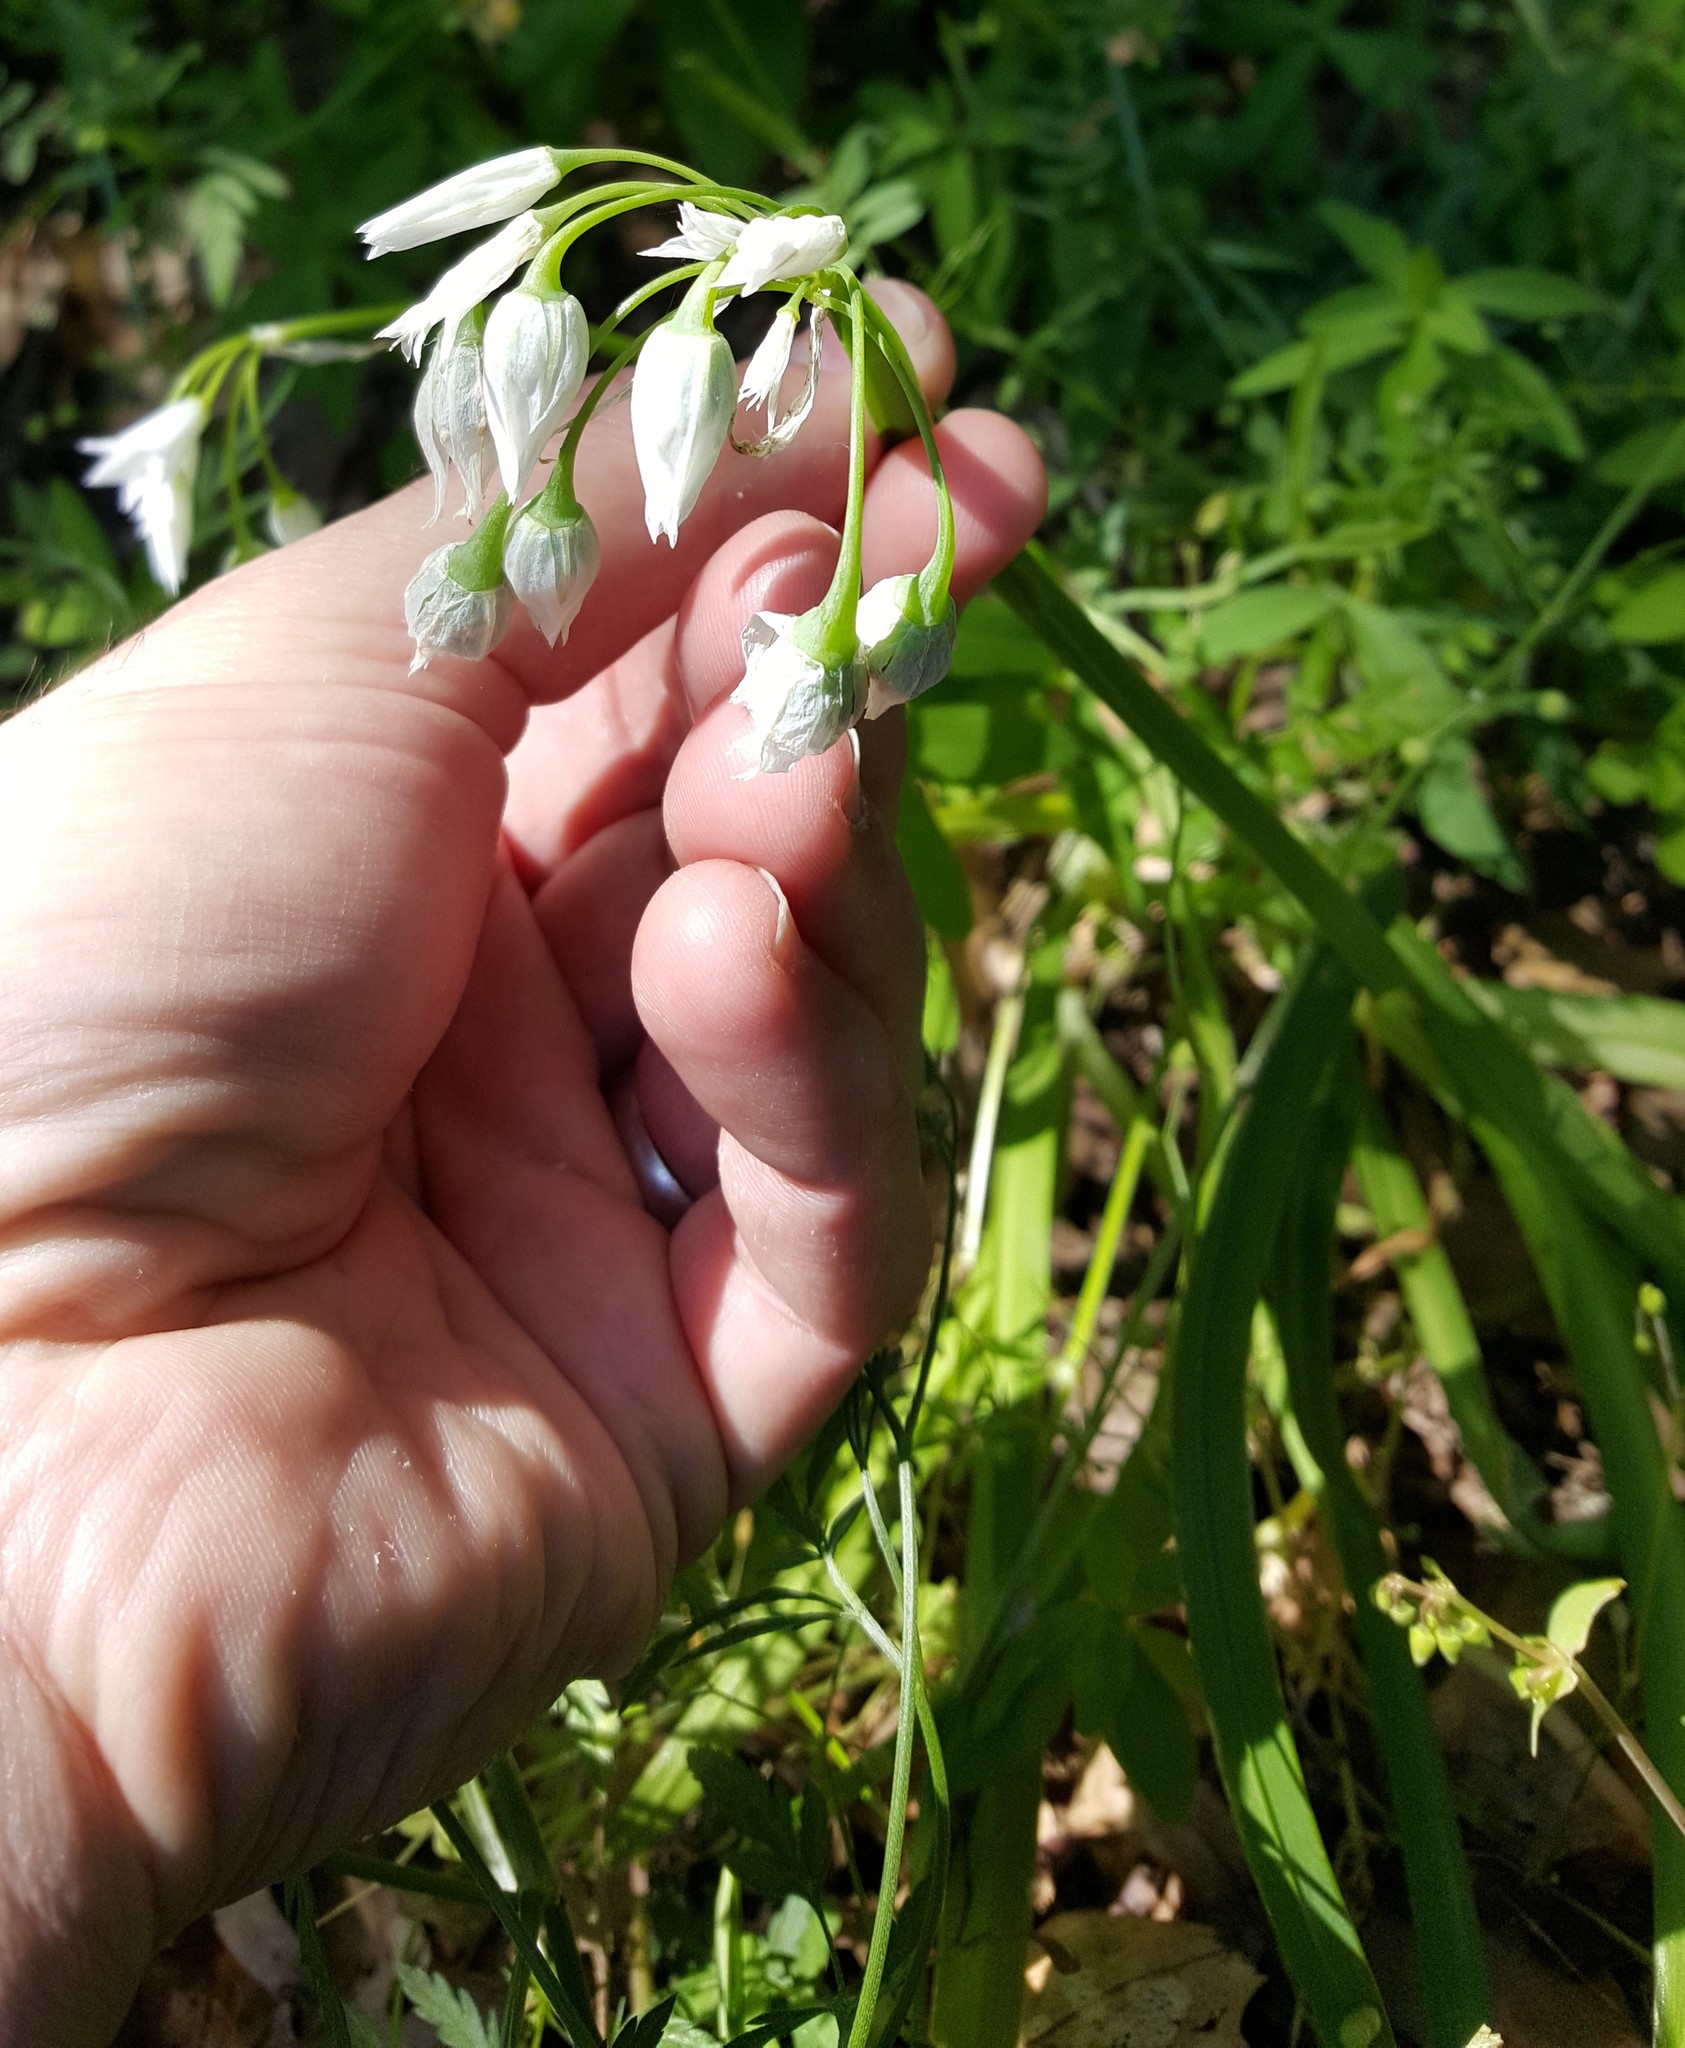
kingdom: Plantae
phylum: Tracheophyta
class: Liliopsida
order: Asparagales
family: Amaryllidaceae
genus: Allium
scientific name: Allium triquetrum
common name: Three-cornered garlic
